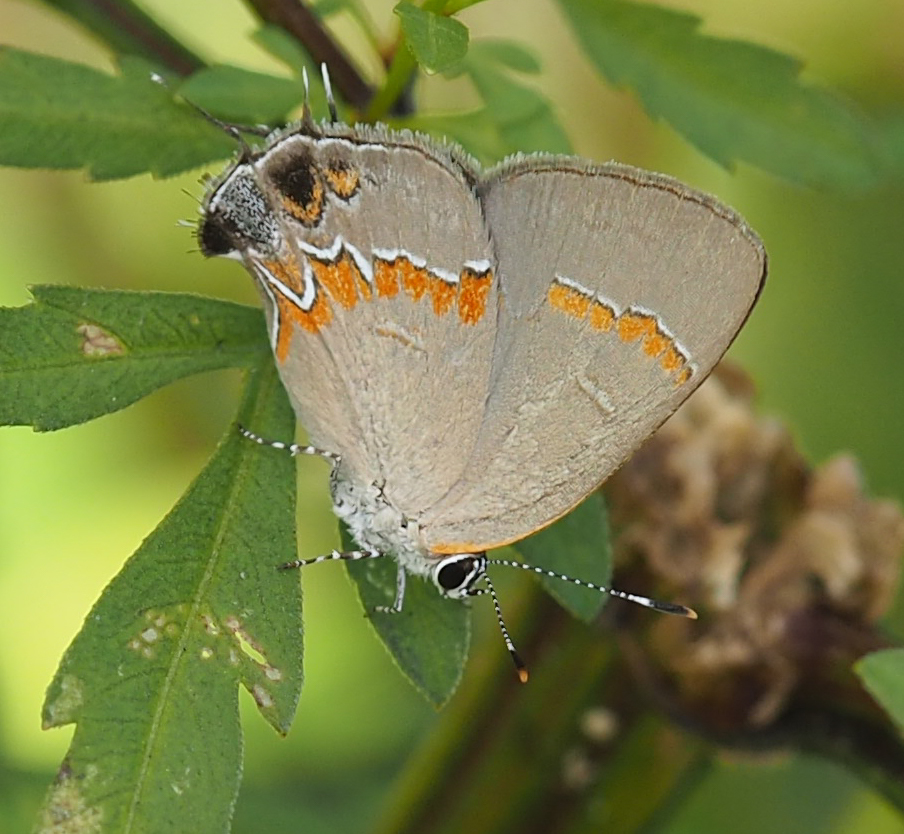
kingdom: Animalia
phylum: Arthropoda
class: Insecta
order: Lepidoptera
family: Lycaenidae
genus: Calycopis
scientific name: Calycopis cecrops
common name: Red-banded hairstreak
